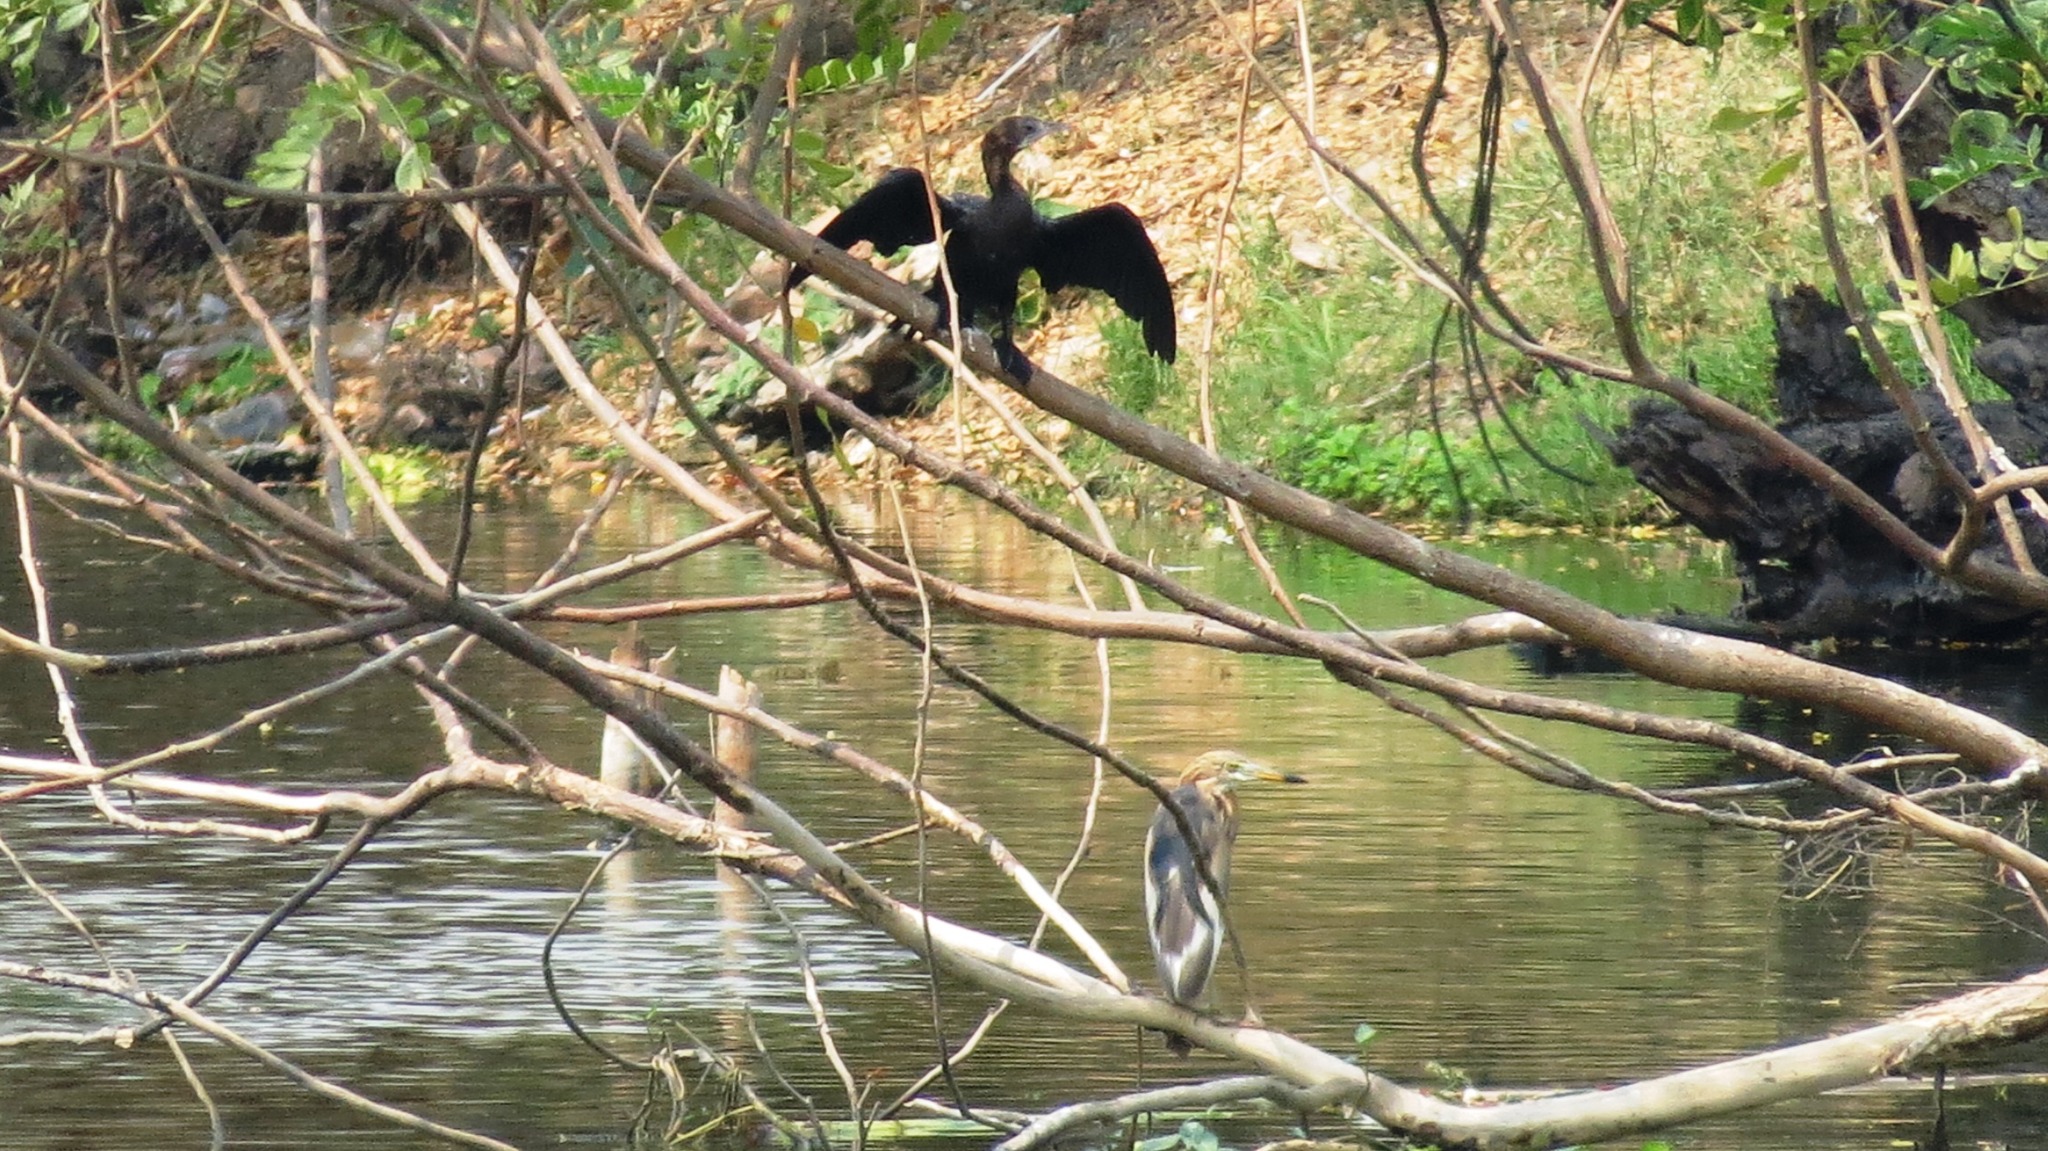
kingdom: Animalia
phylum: Chordata
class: Aves
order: Suliformes
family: Phalacrocoracidae
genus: Microcarbo
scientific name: Microcarbo niger
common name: Little cormorant
